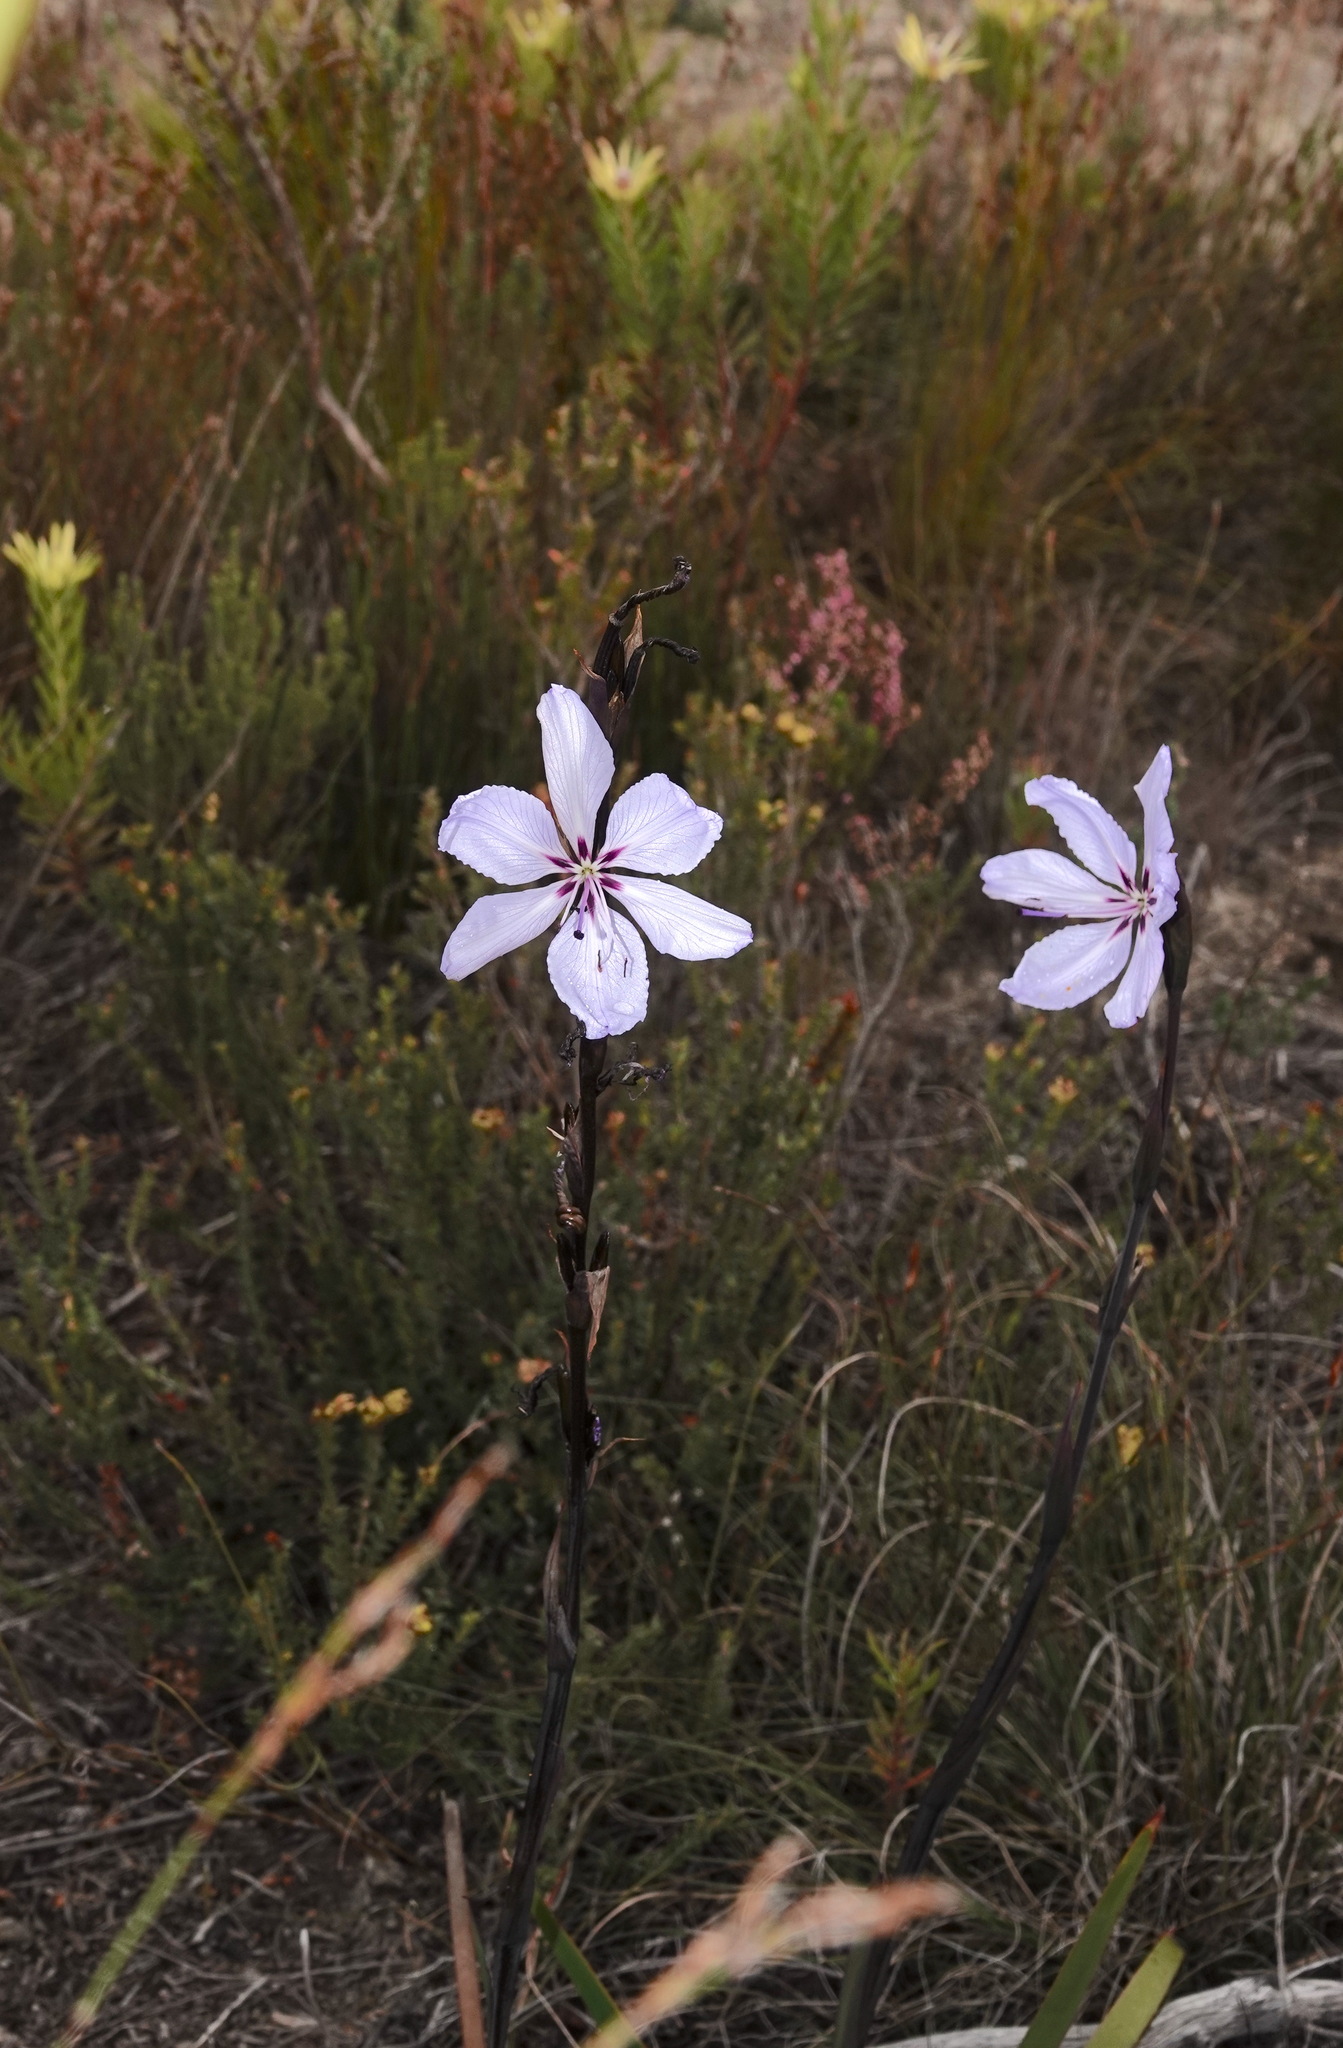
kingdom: Plantae
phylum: Tracheophyta
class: Liliopsida
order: Asparagales
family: Iridaceae
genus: Aristea
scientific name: Aristea spiralis
